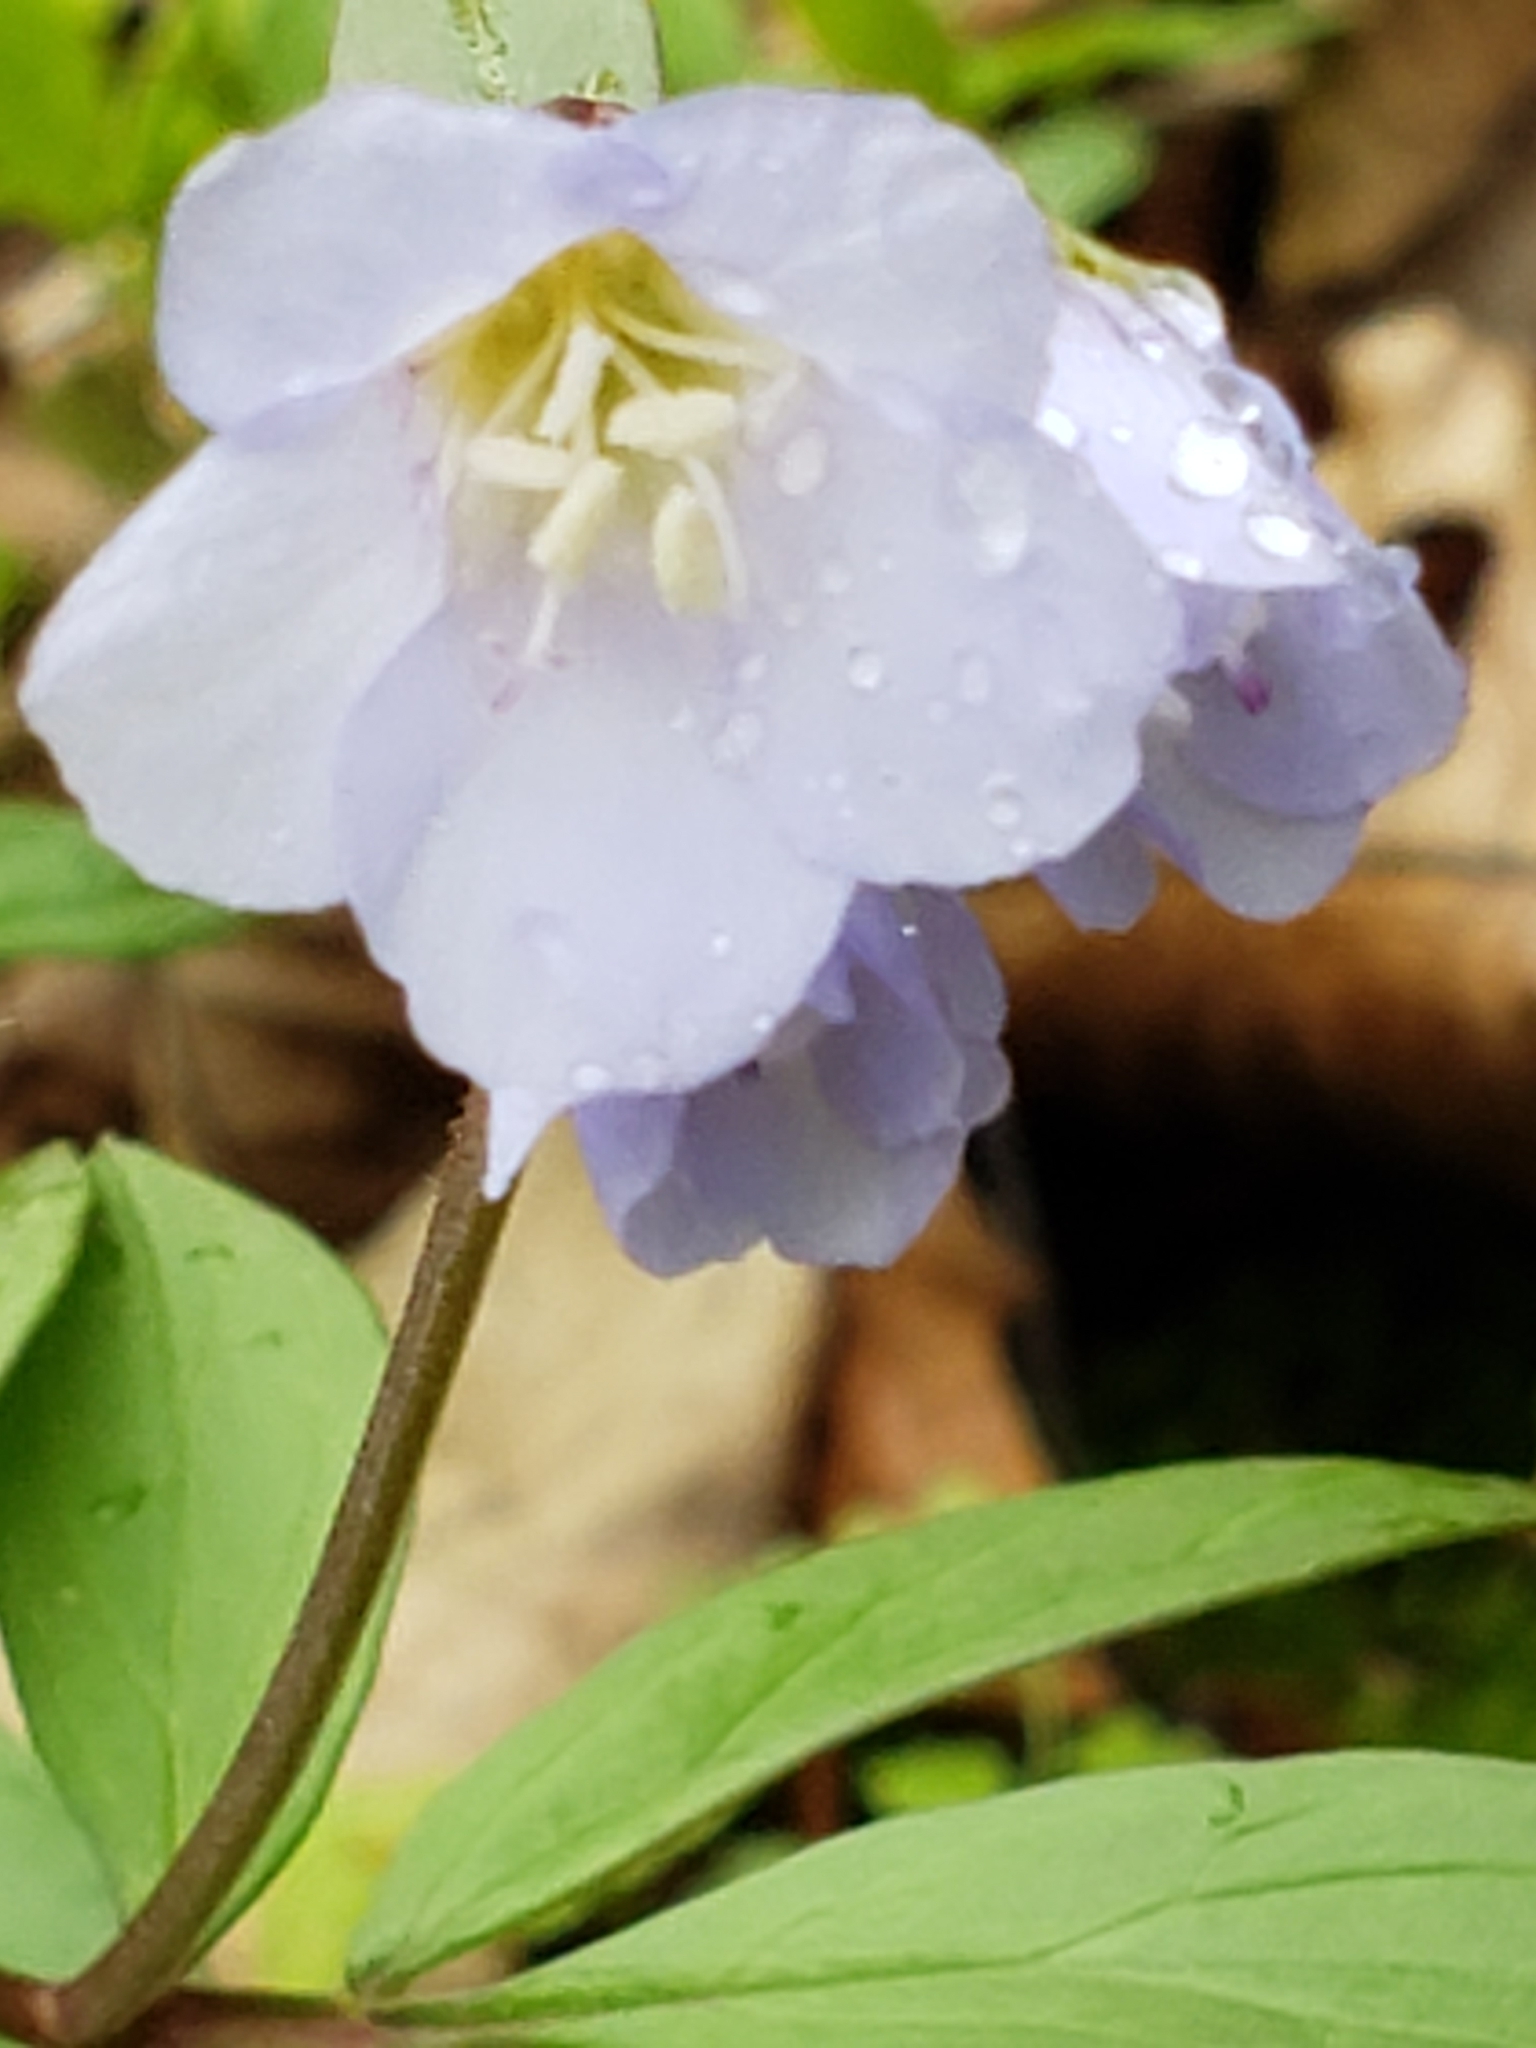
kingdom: Plantae
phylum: Tracheophyta
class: Magnoliopsida
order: Ericales
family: Polemoniaceae
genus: Polemonium
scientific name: Polemonium reptans
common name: Creeping jacob's-ladder
